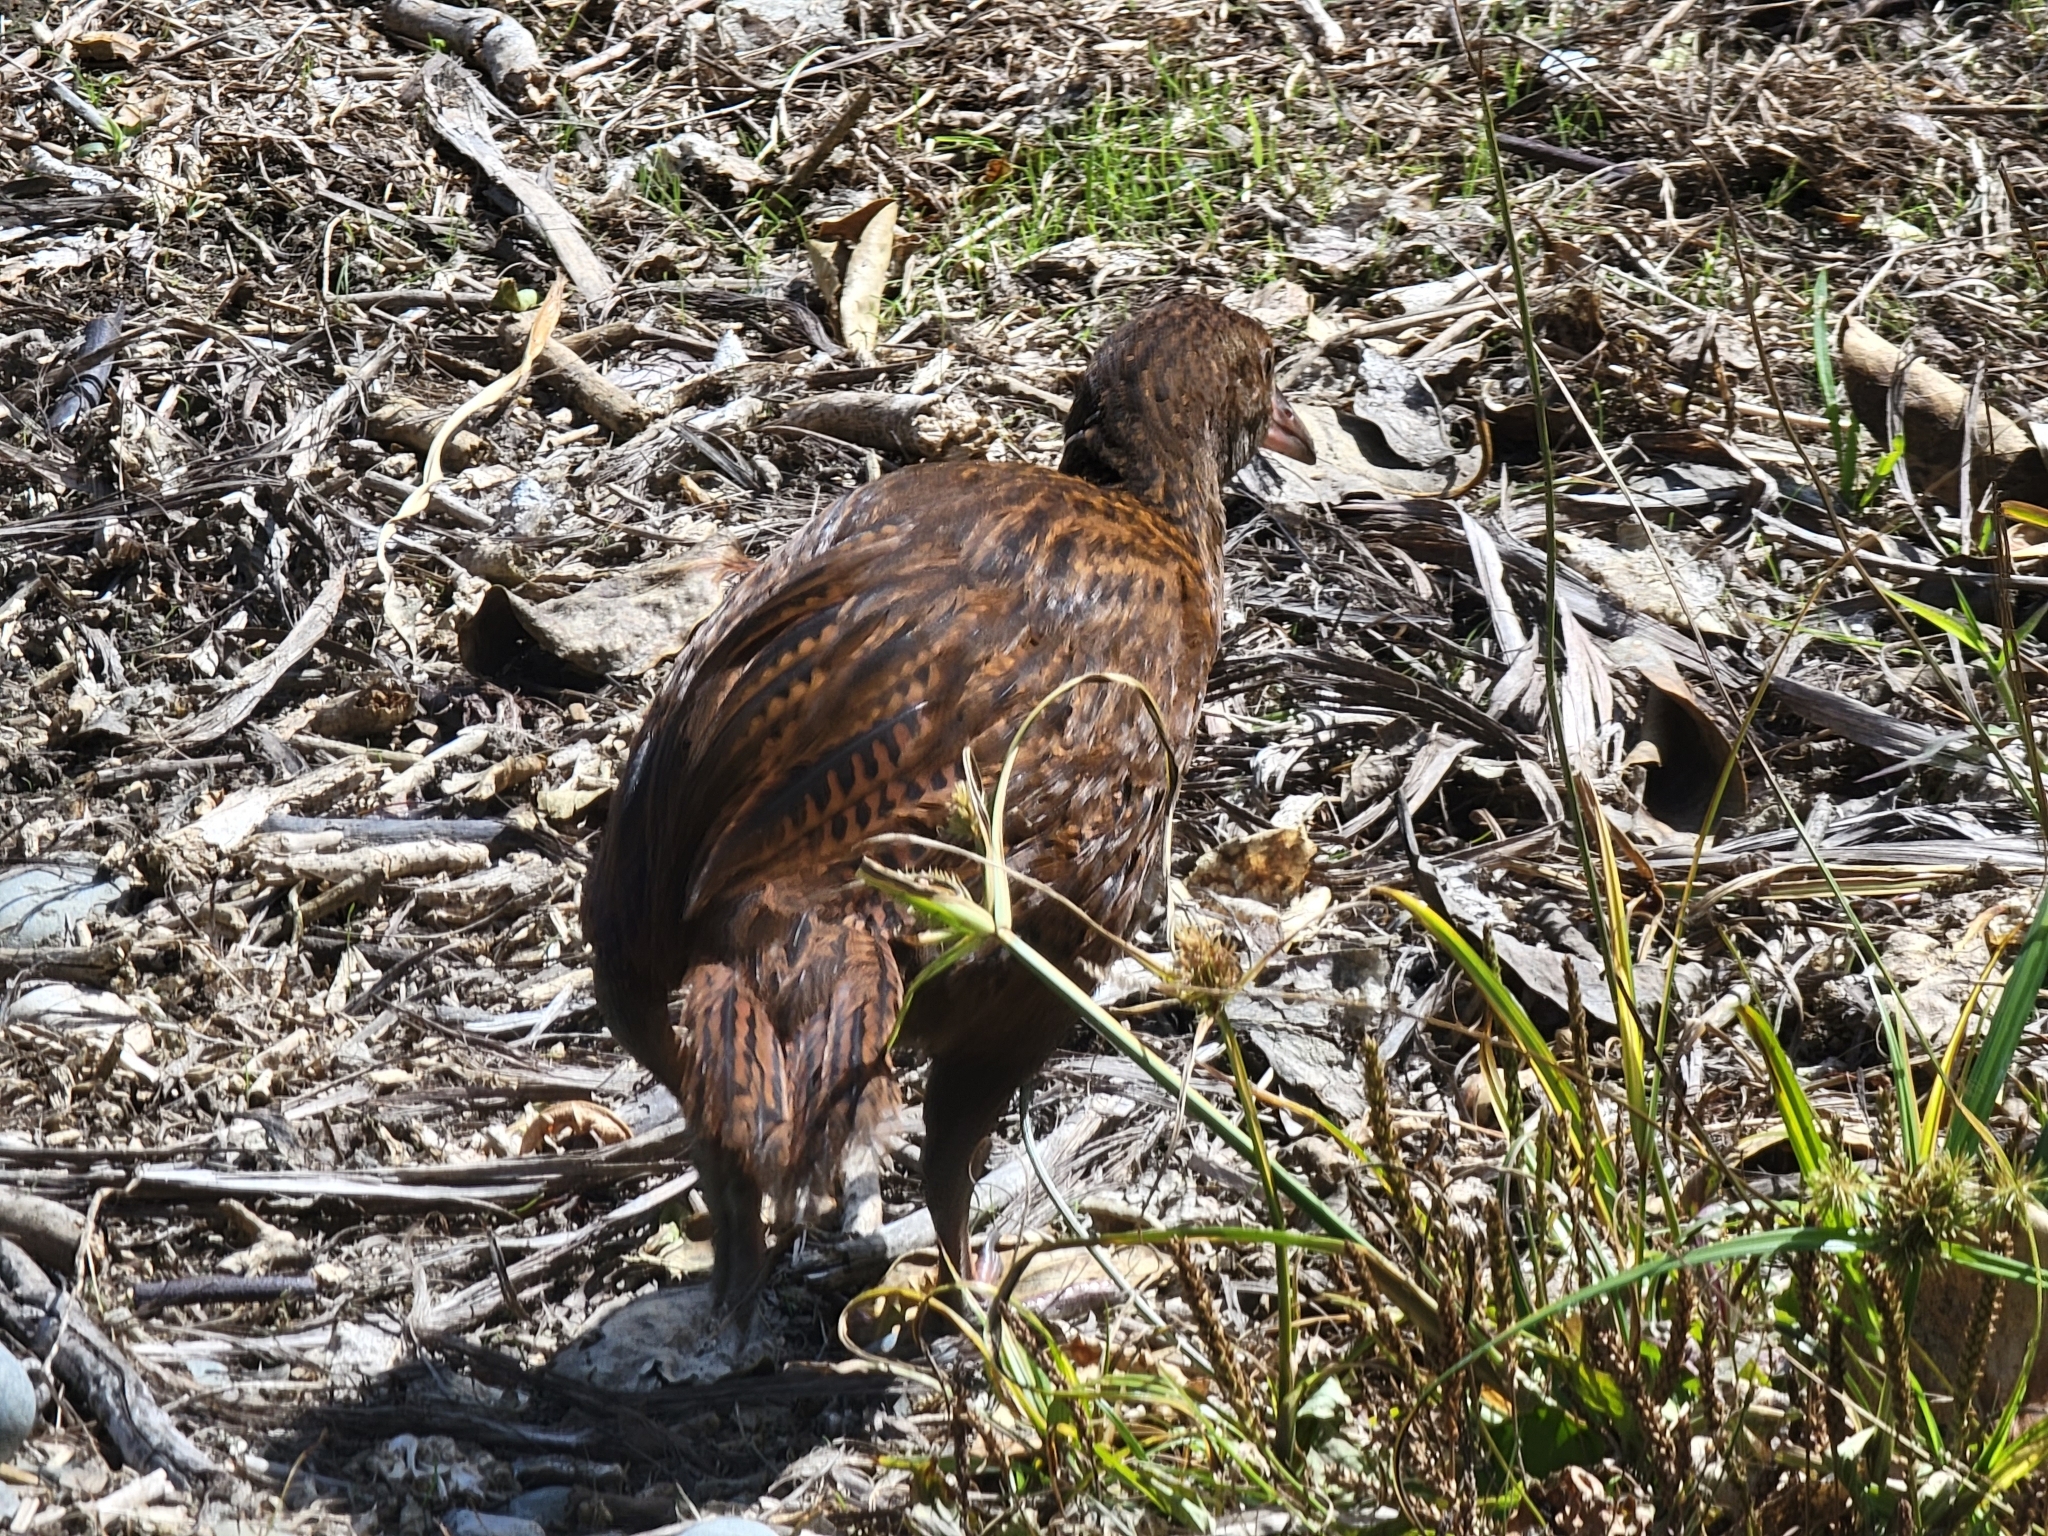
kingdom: Animalia
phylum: Chordata
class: Aves
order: Gruiformes
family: Rallidae
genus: Gallirallus
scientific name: Gallirallus australis
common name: Weka
